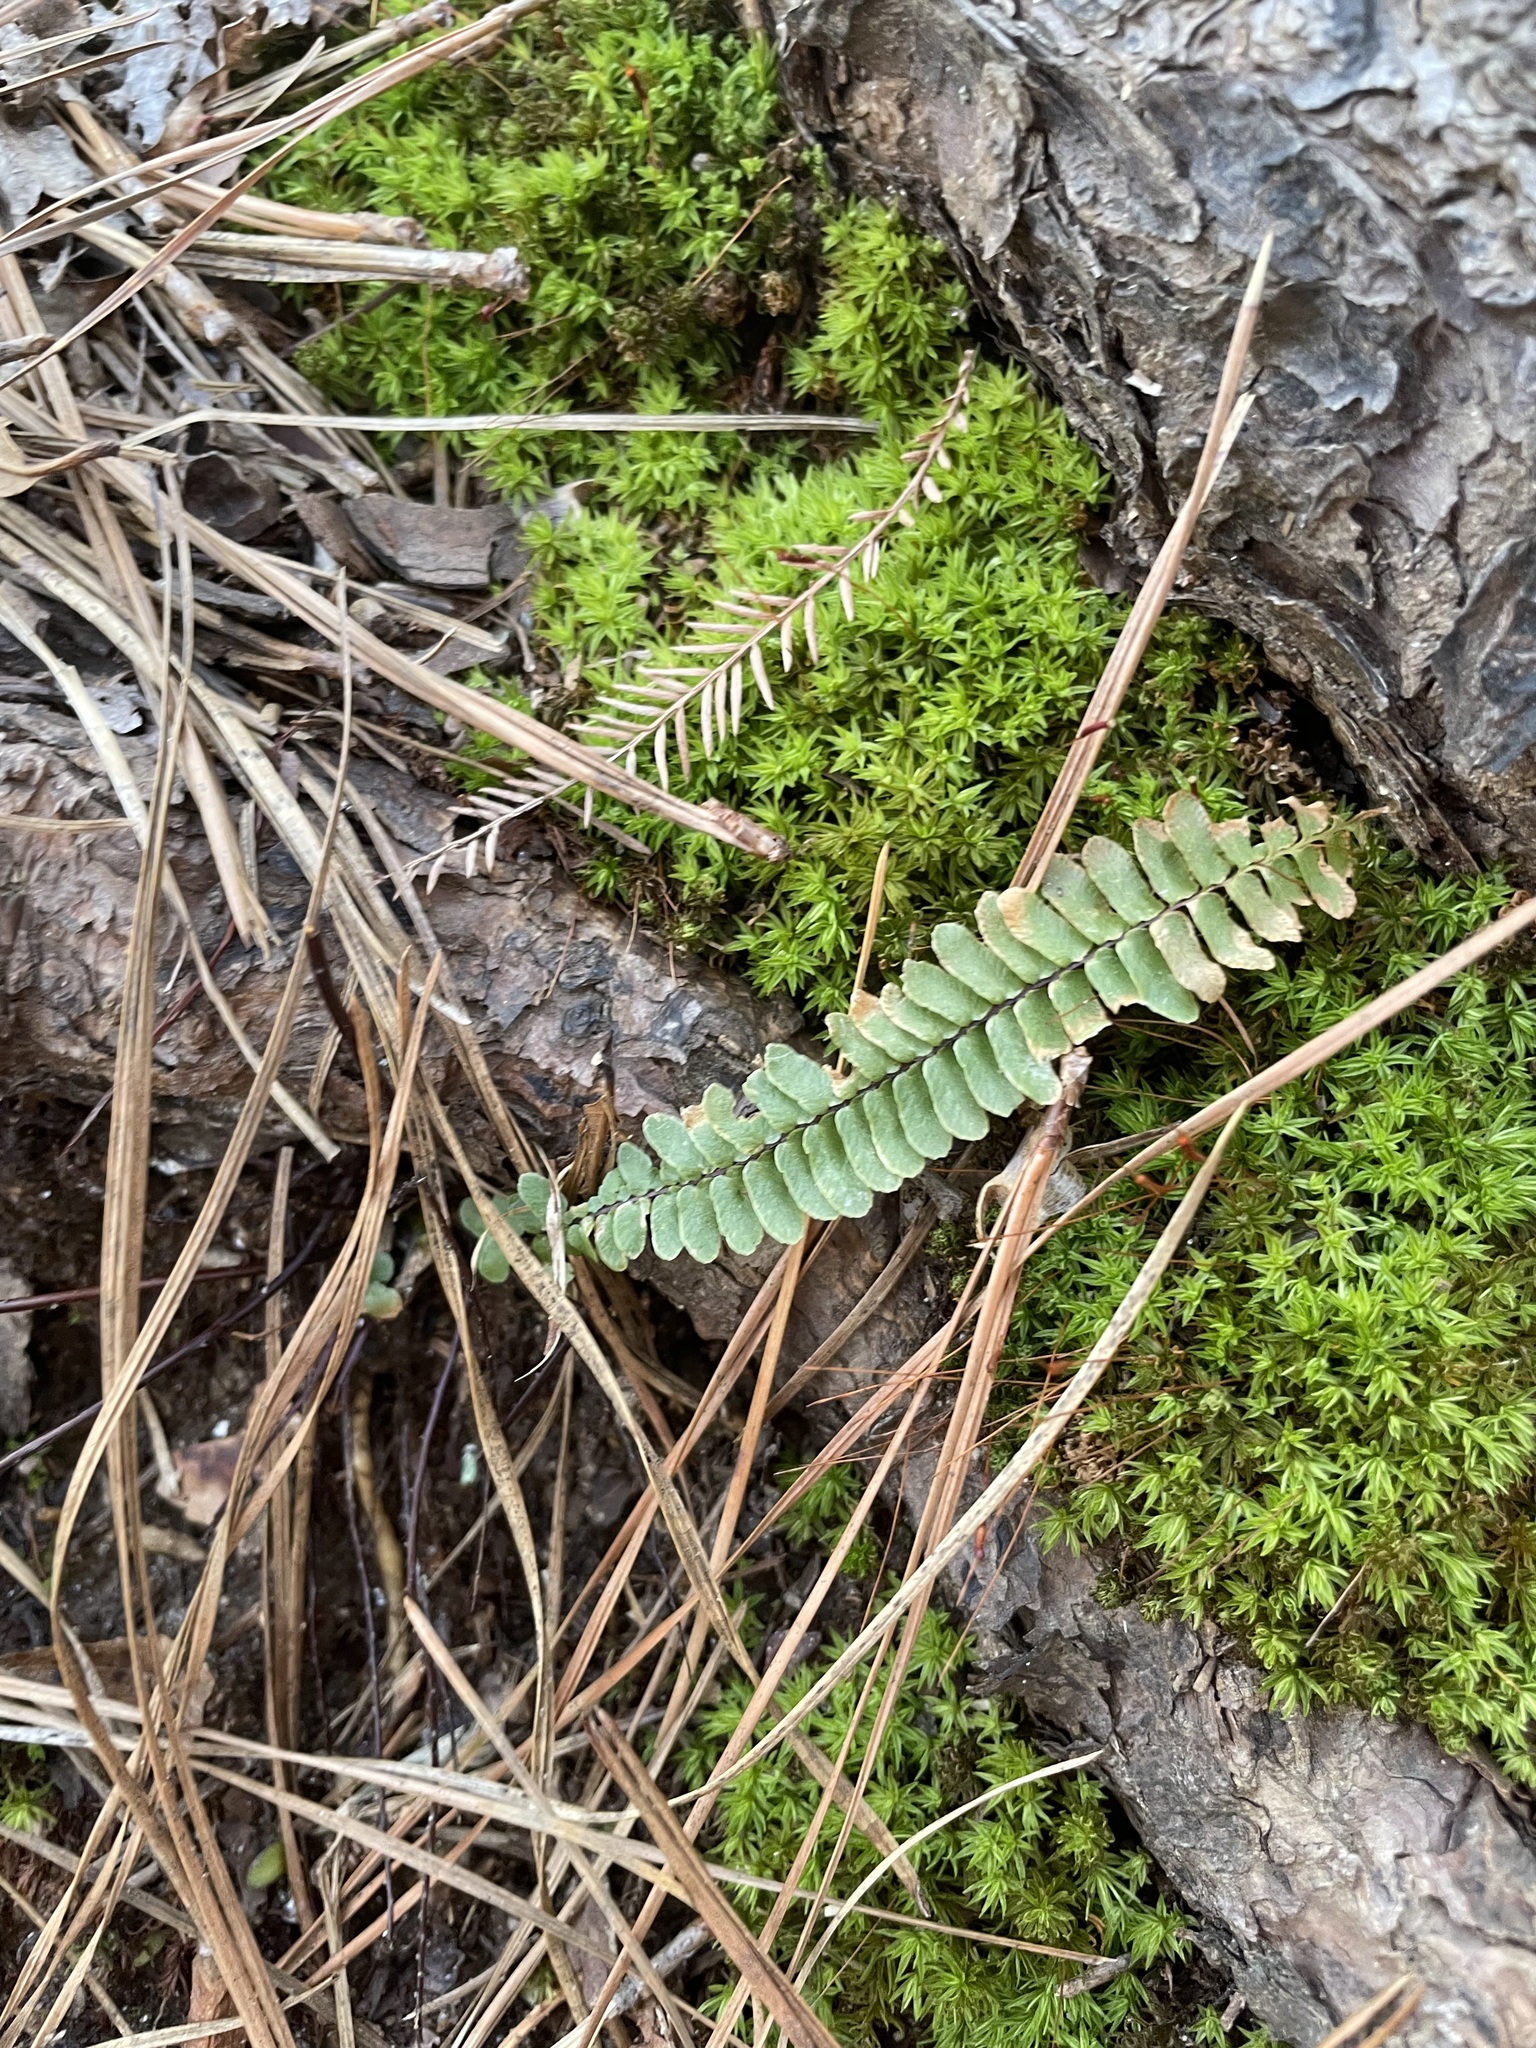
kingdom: Plantae
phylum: Tracheophyta
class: Polypodiopsida
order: Polypodiales
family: Aspleniaceae
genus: Asplenium
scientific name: Asplenium platyneuron
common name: Ebony spleenwort
